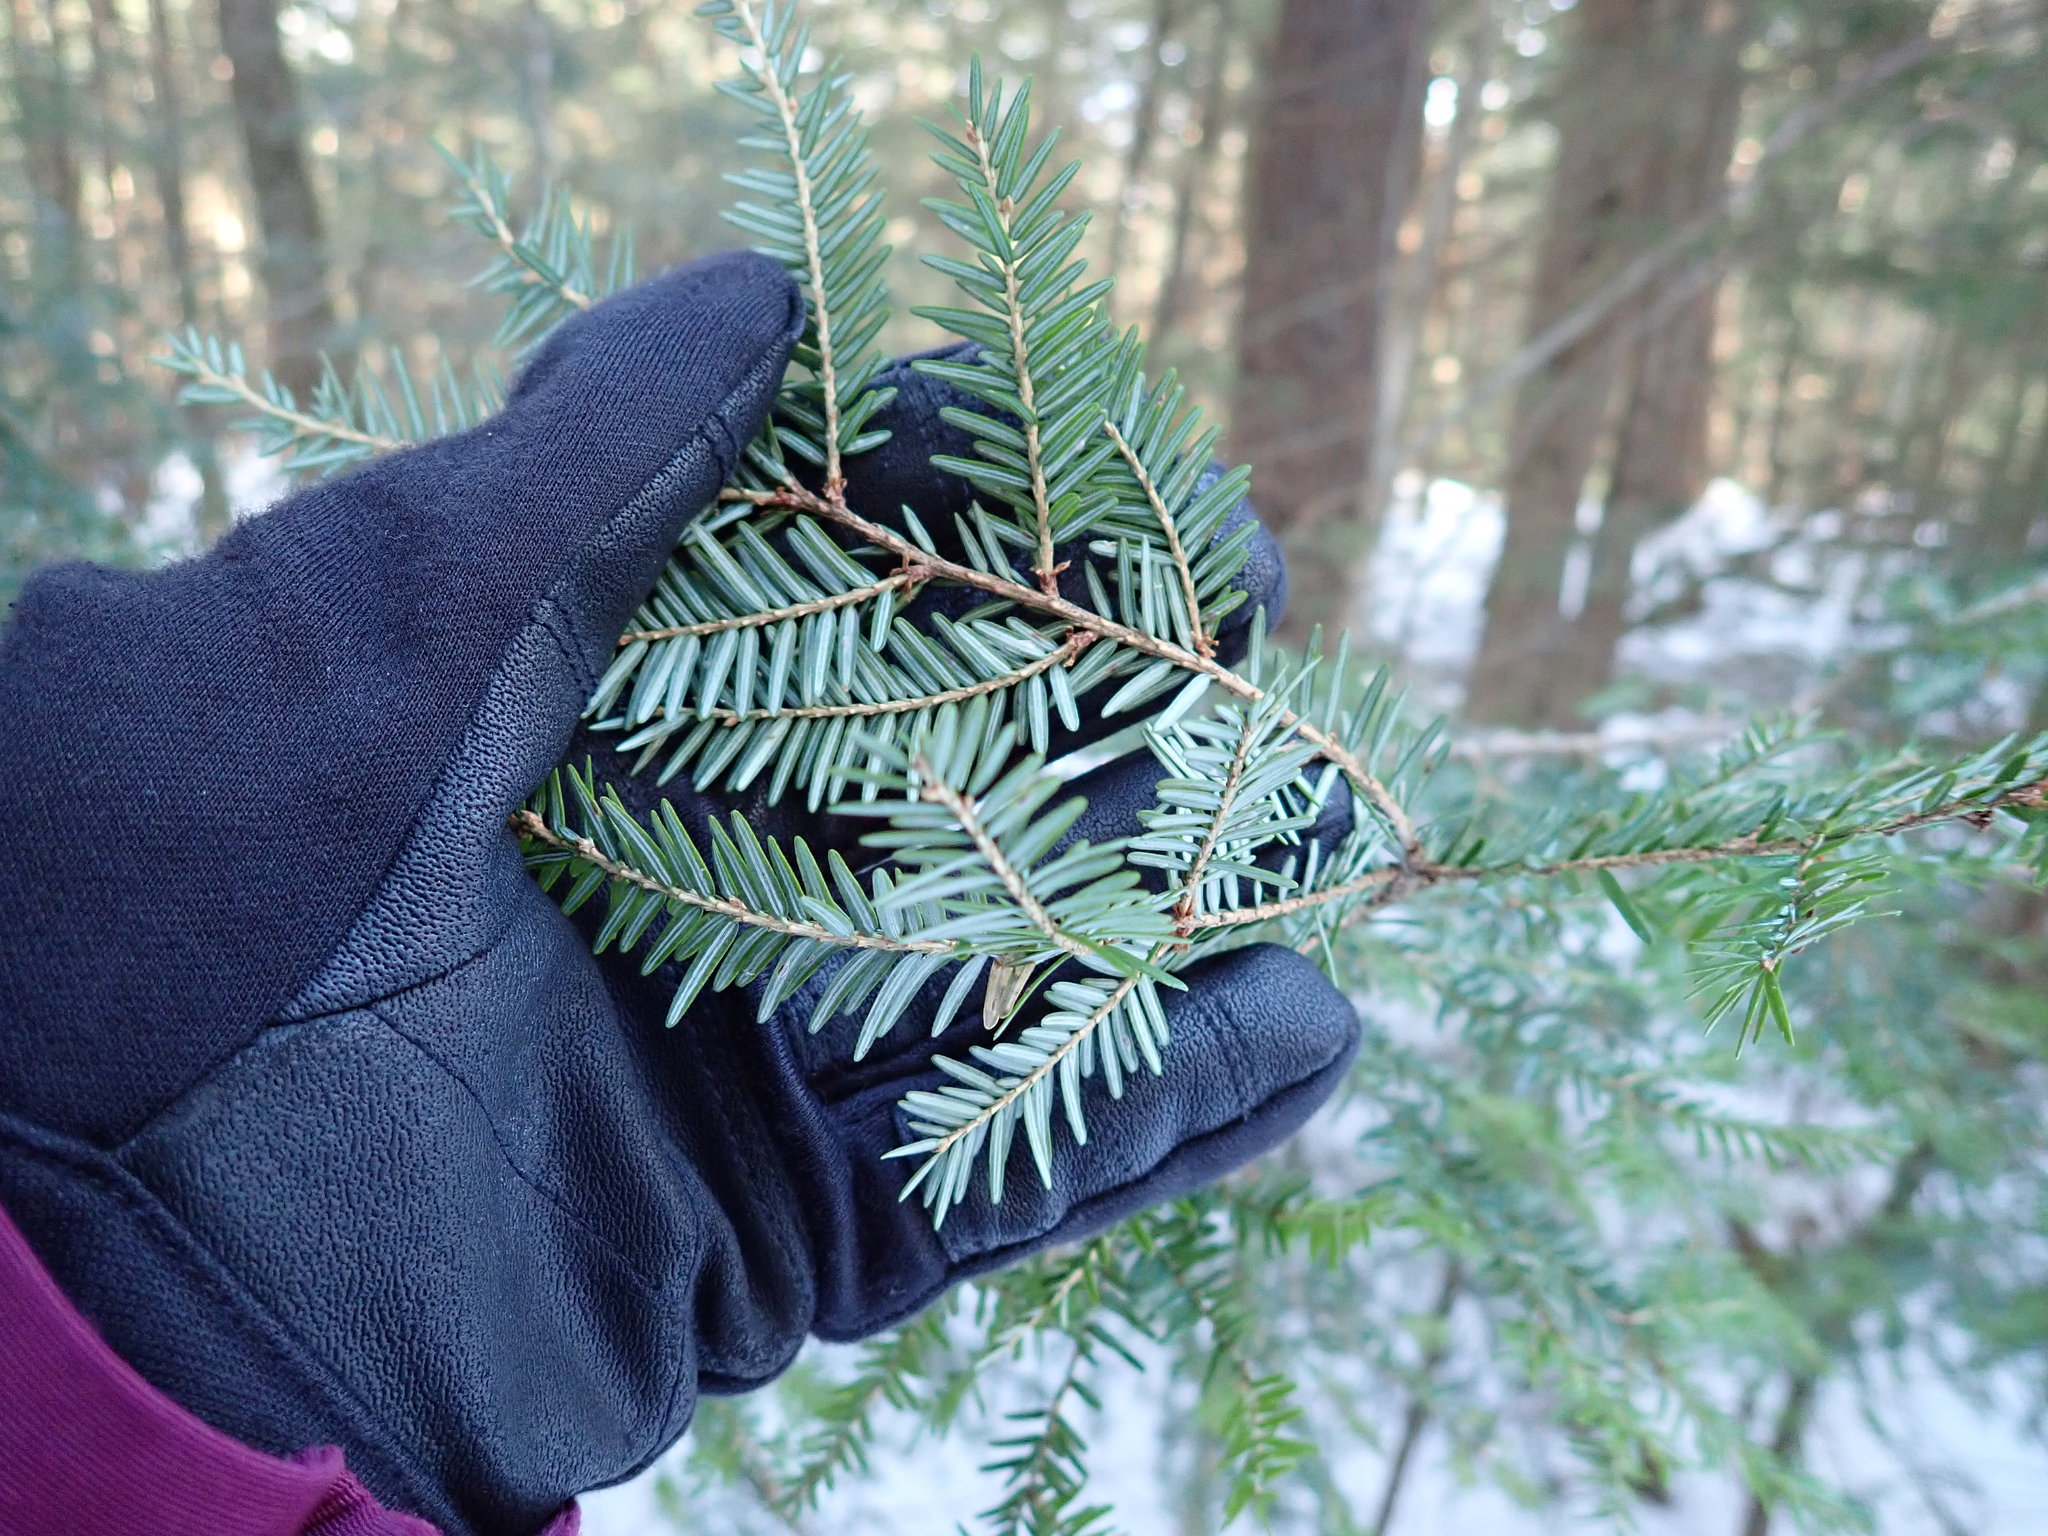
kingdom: Plantae
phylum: Tracheophyta
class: Pinopsida
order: Pinales
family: Pinaceae
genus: Tsuga
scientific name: Tsuga canadensis
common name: Eastern hemlock
